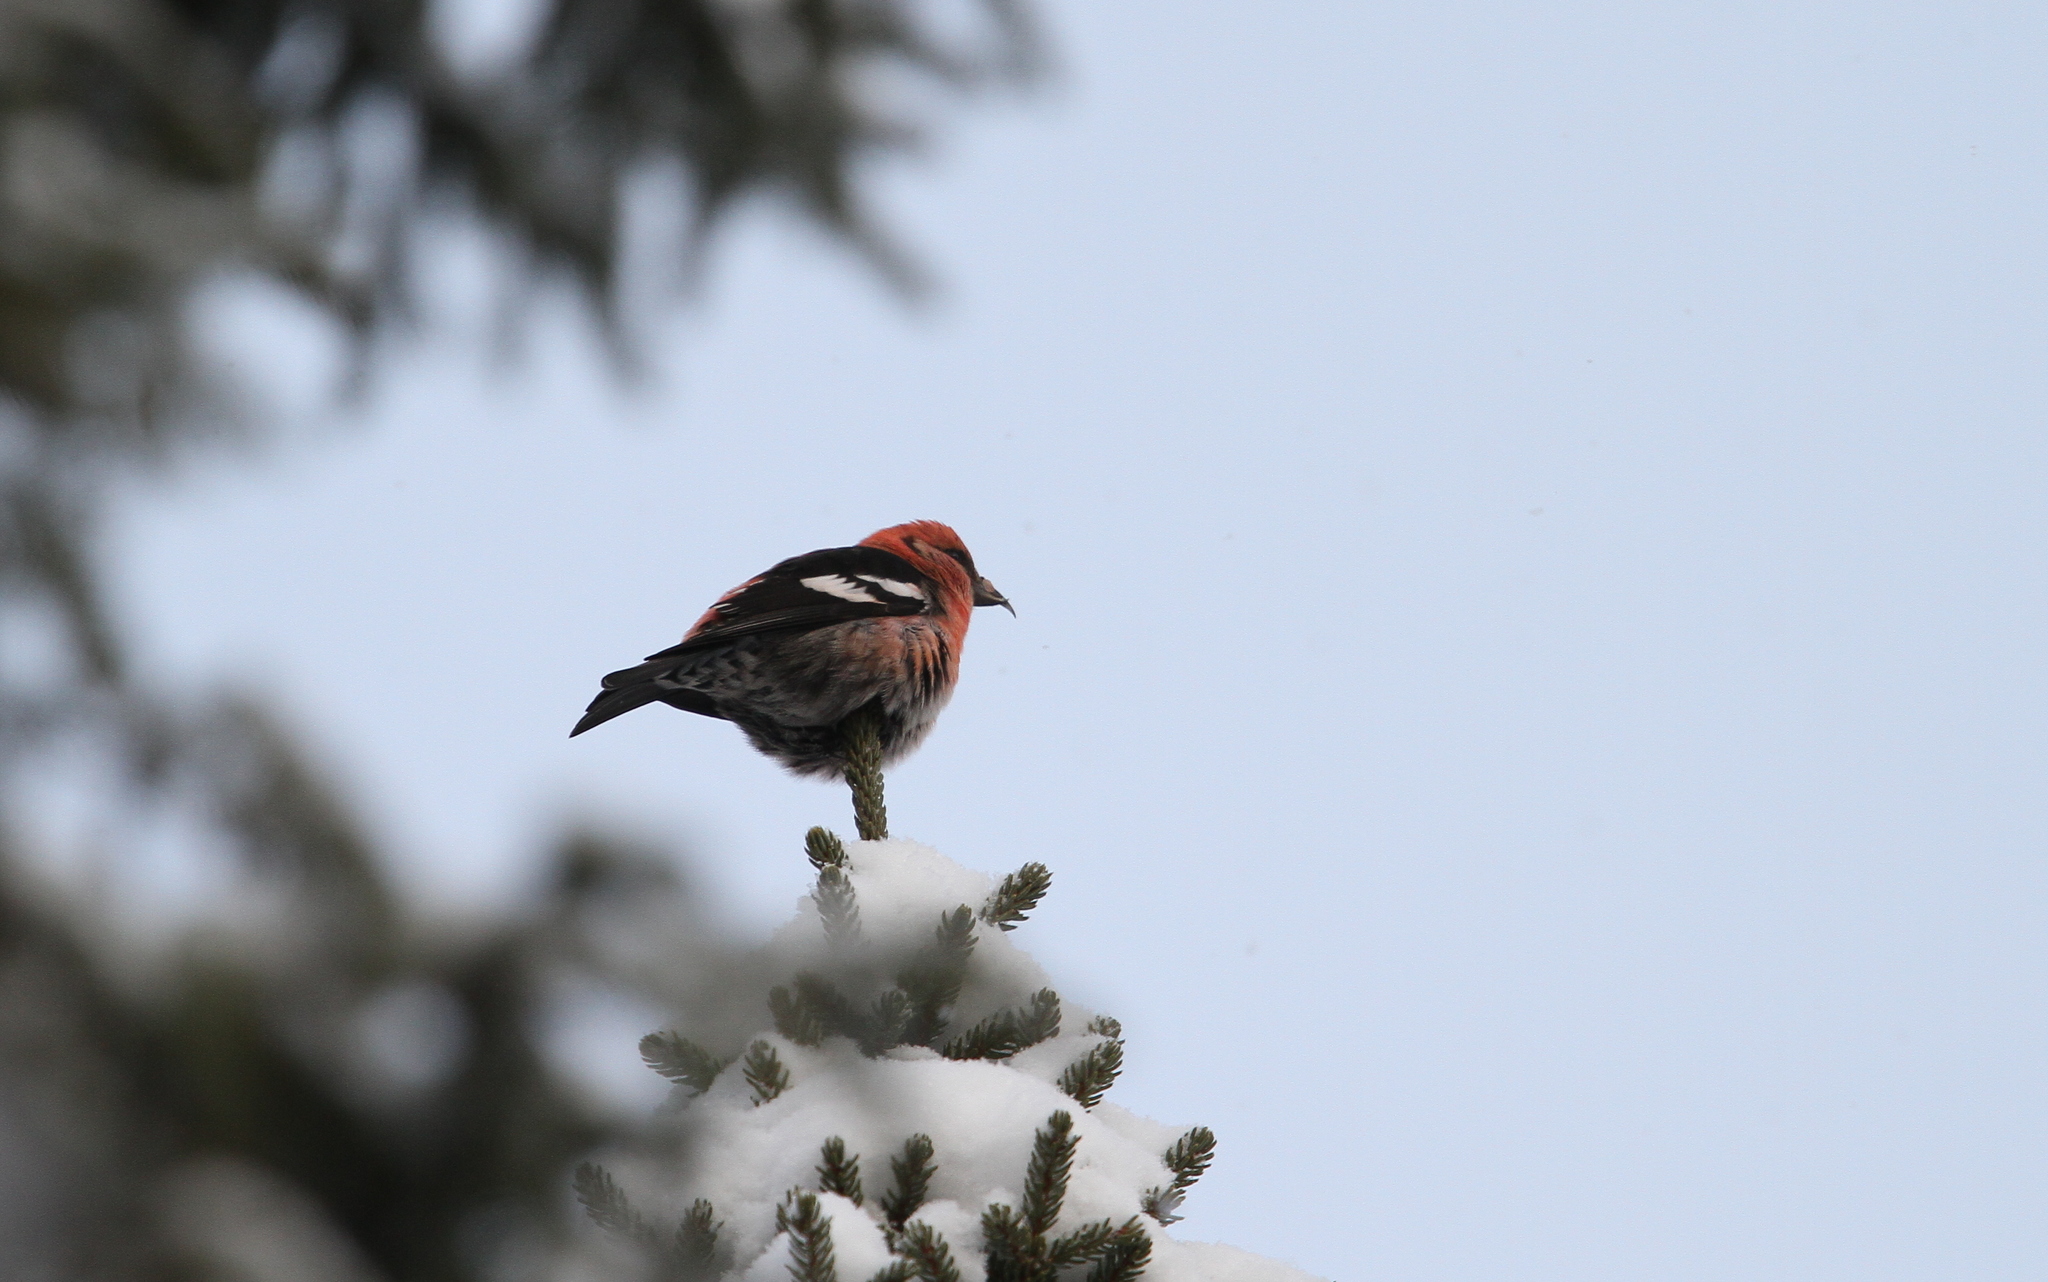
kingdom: Animalia
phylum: Chordata
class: Aves
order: Passeriformes
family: Fringillidae
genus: Loxia
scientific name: Loxia leucoptera
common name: Two-barred crossbill
